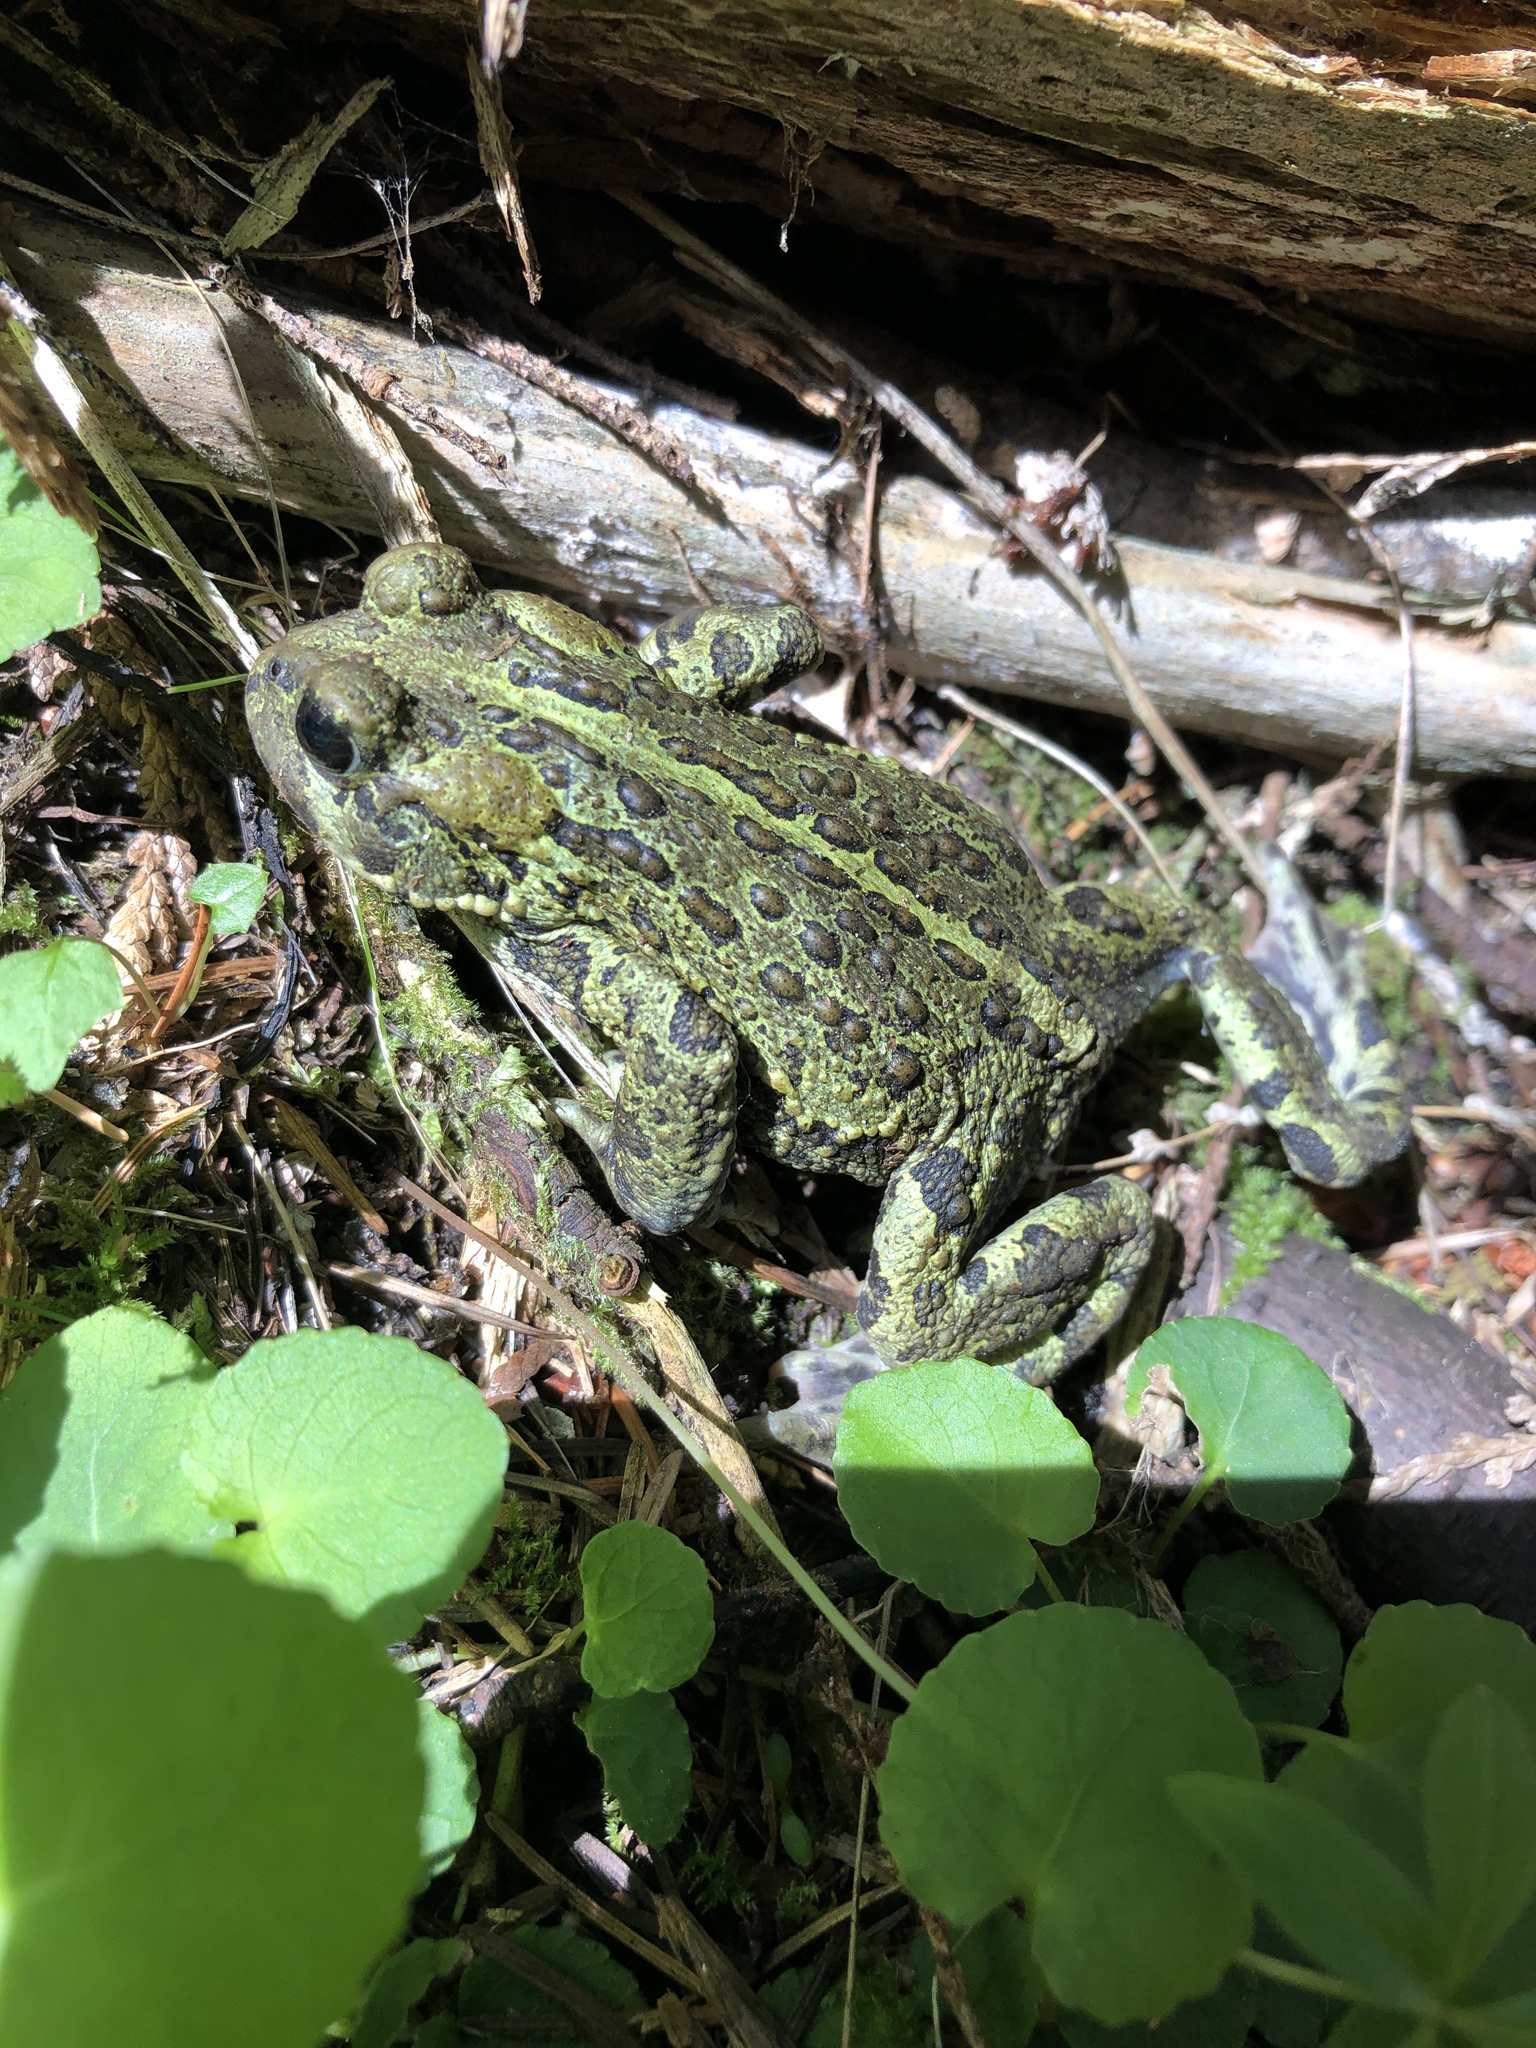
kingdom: Animalia
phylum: Chordata
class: Amphibia
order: Anura
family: Bufonidae
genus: Anaxyrus
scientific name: Anaxyrus boreas
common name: Western toad
